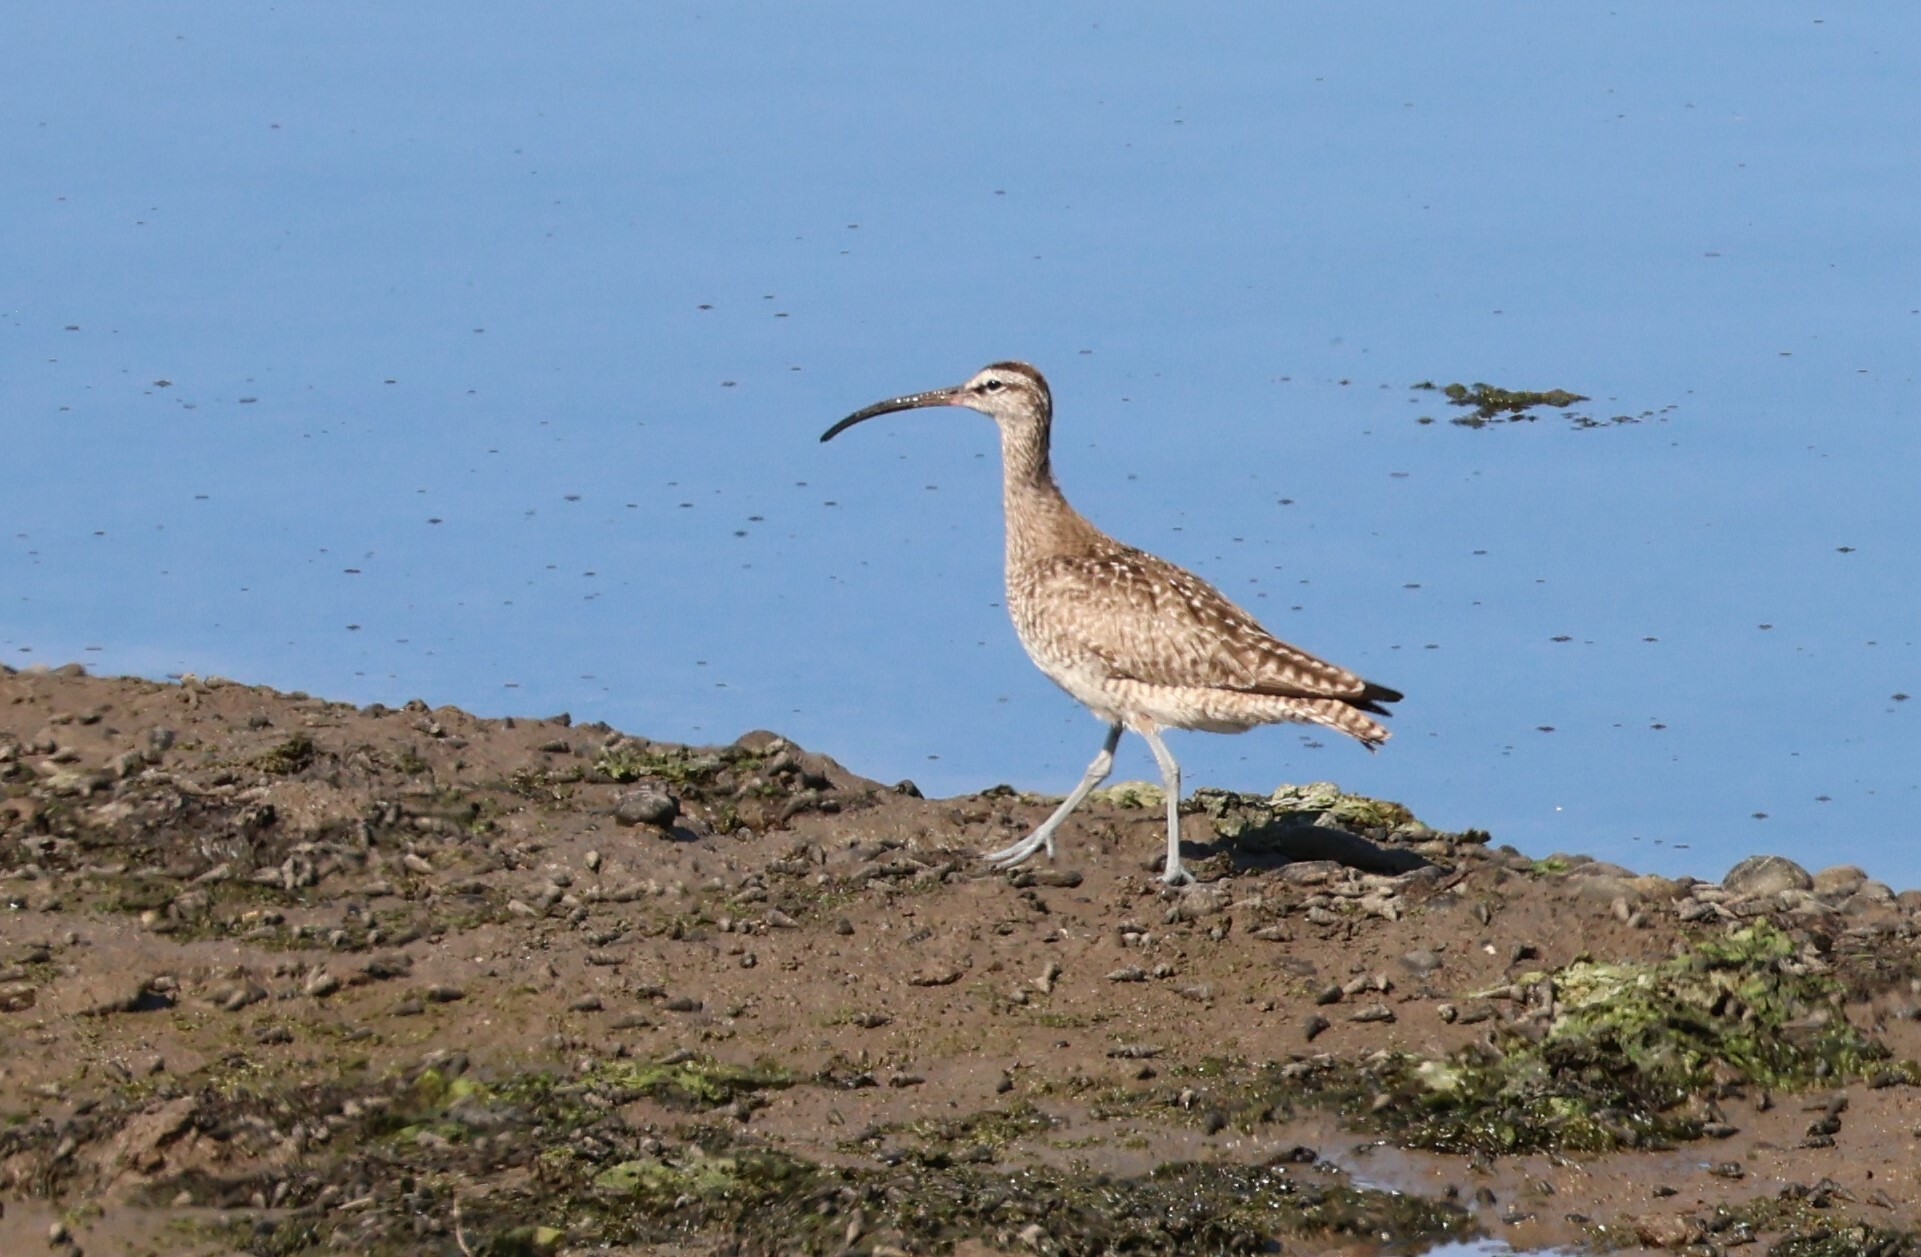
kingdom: Animalia
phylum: Chordata
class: Aves
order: Charadriiformes
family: Scolopacidae
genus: Numenius
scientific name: Numenius phaeopus
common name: Whimbrel
